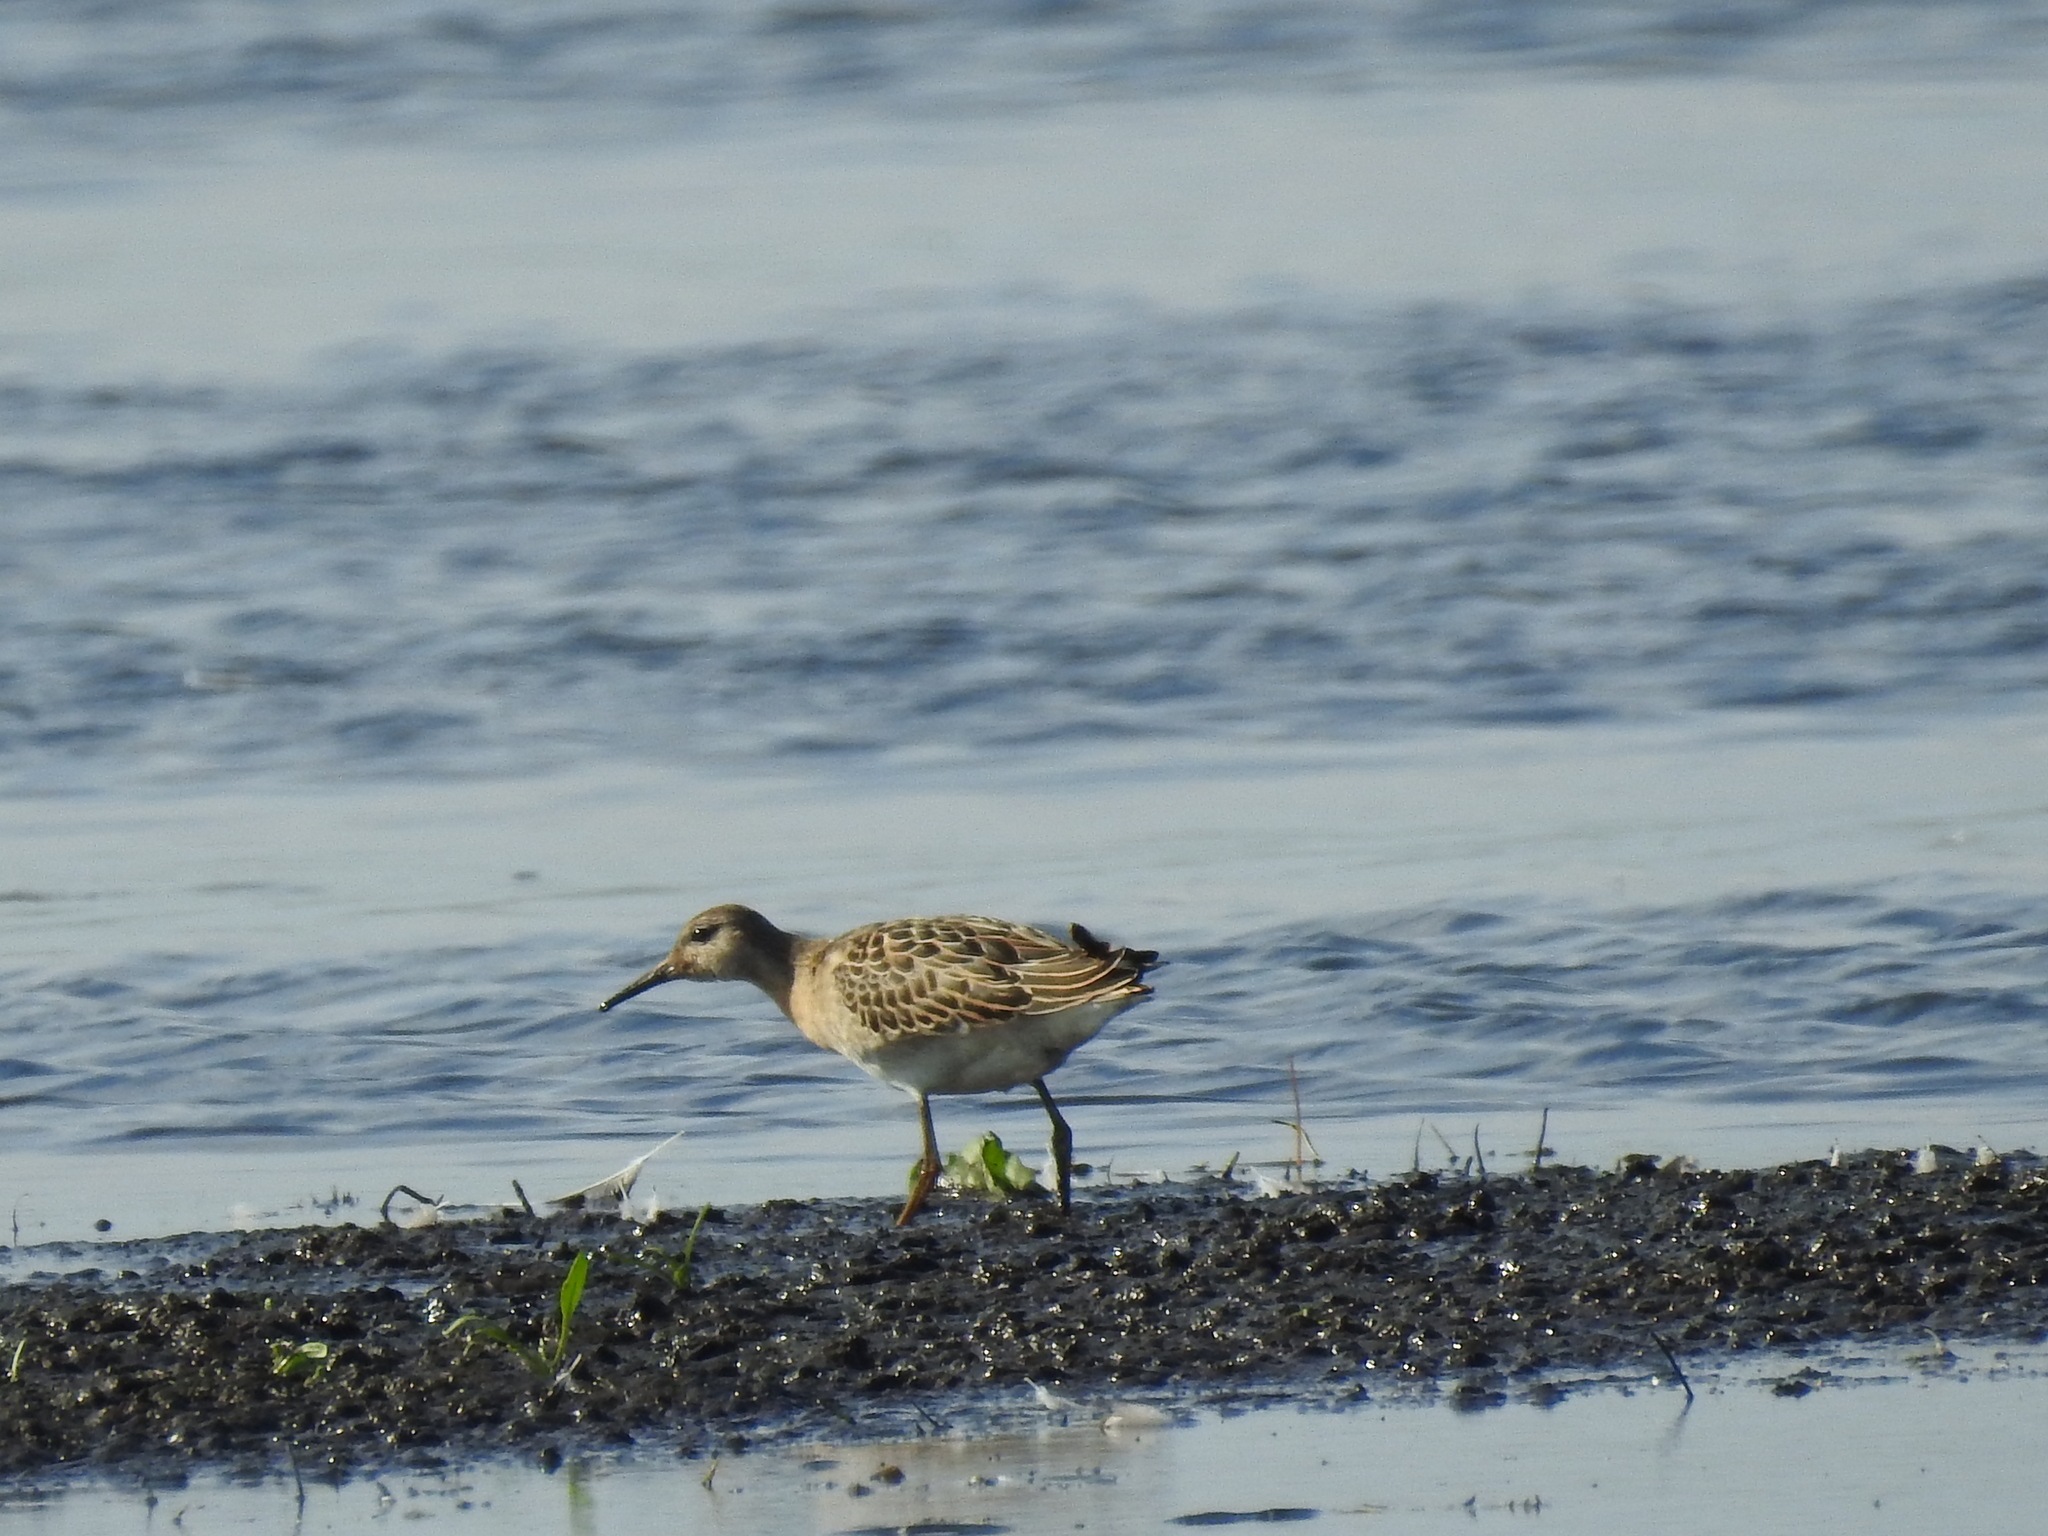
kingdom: Animalia
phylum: Chordata
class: Aves
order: Charadriiformes
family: Scolopacidae
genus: Calidris
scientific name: Calidris pugnax
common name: Ruff
